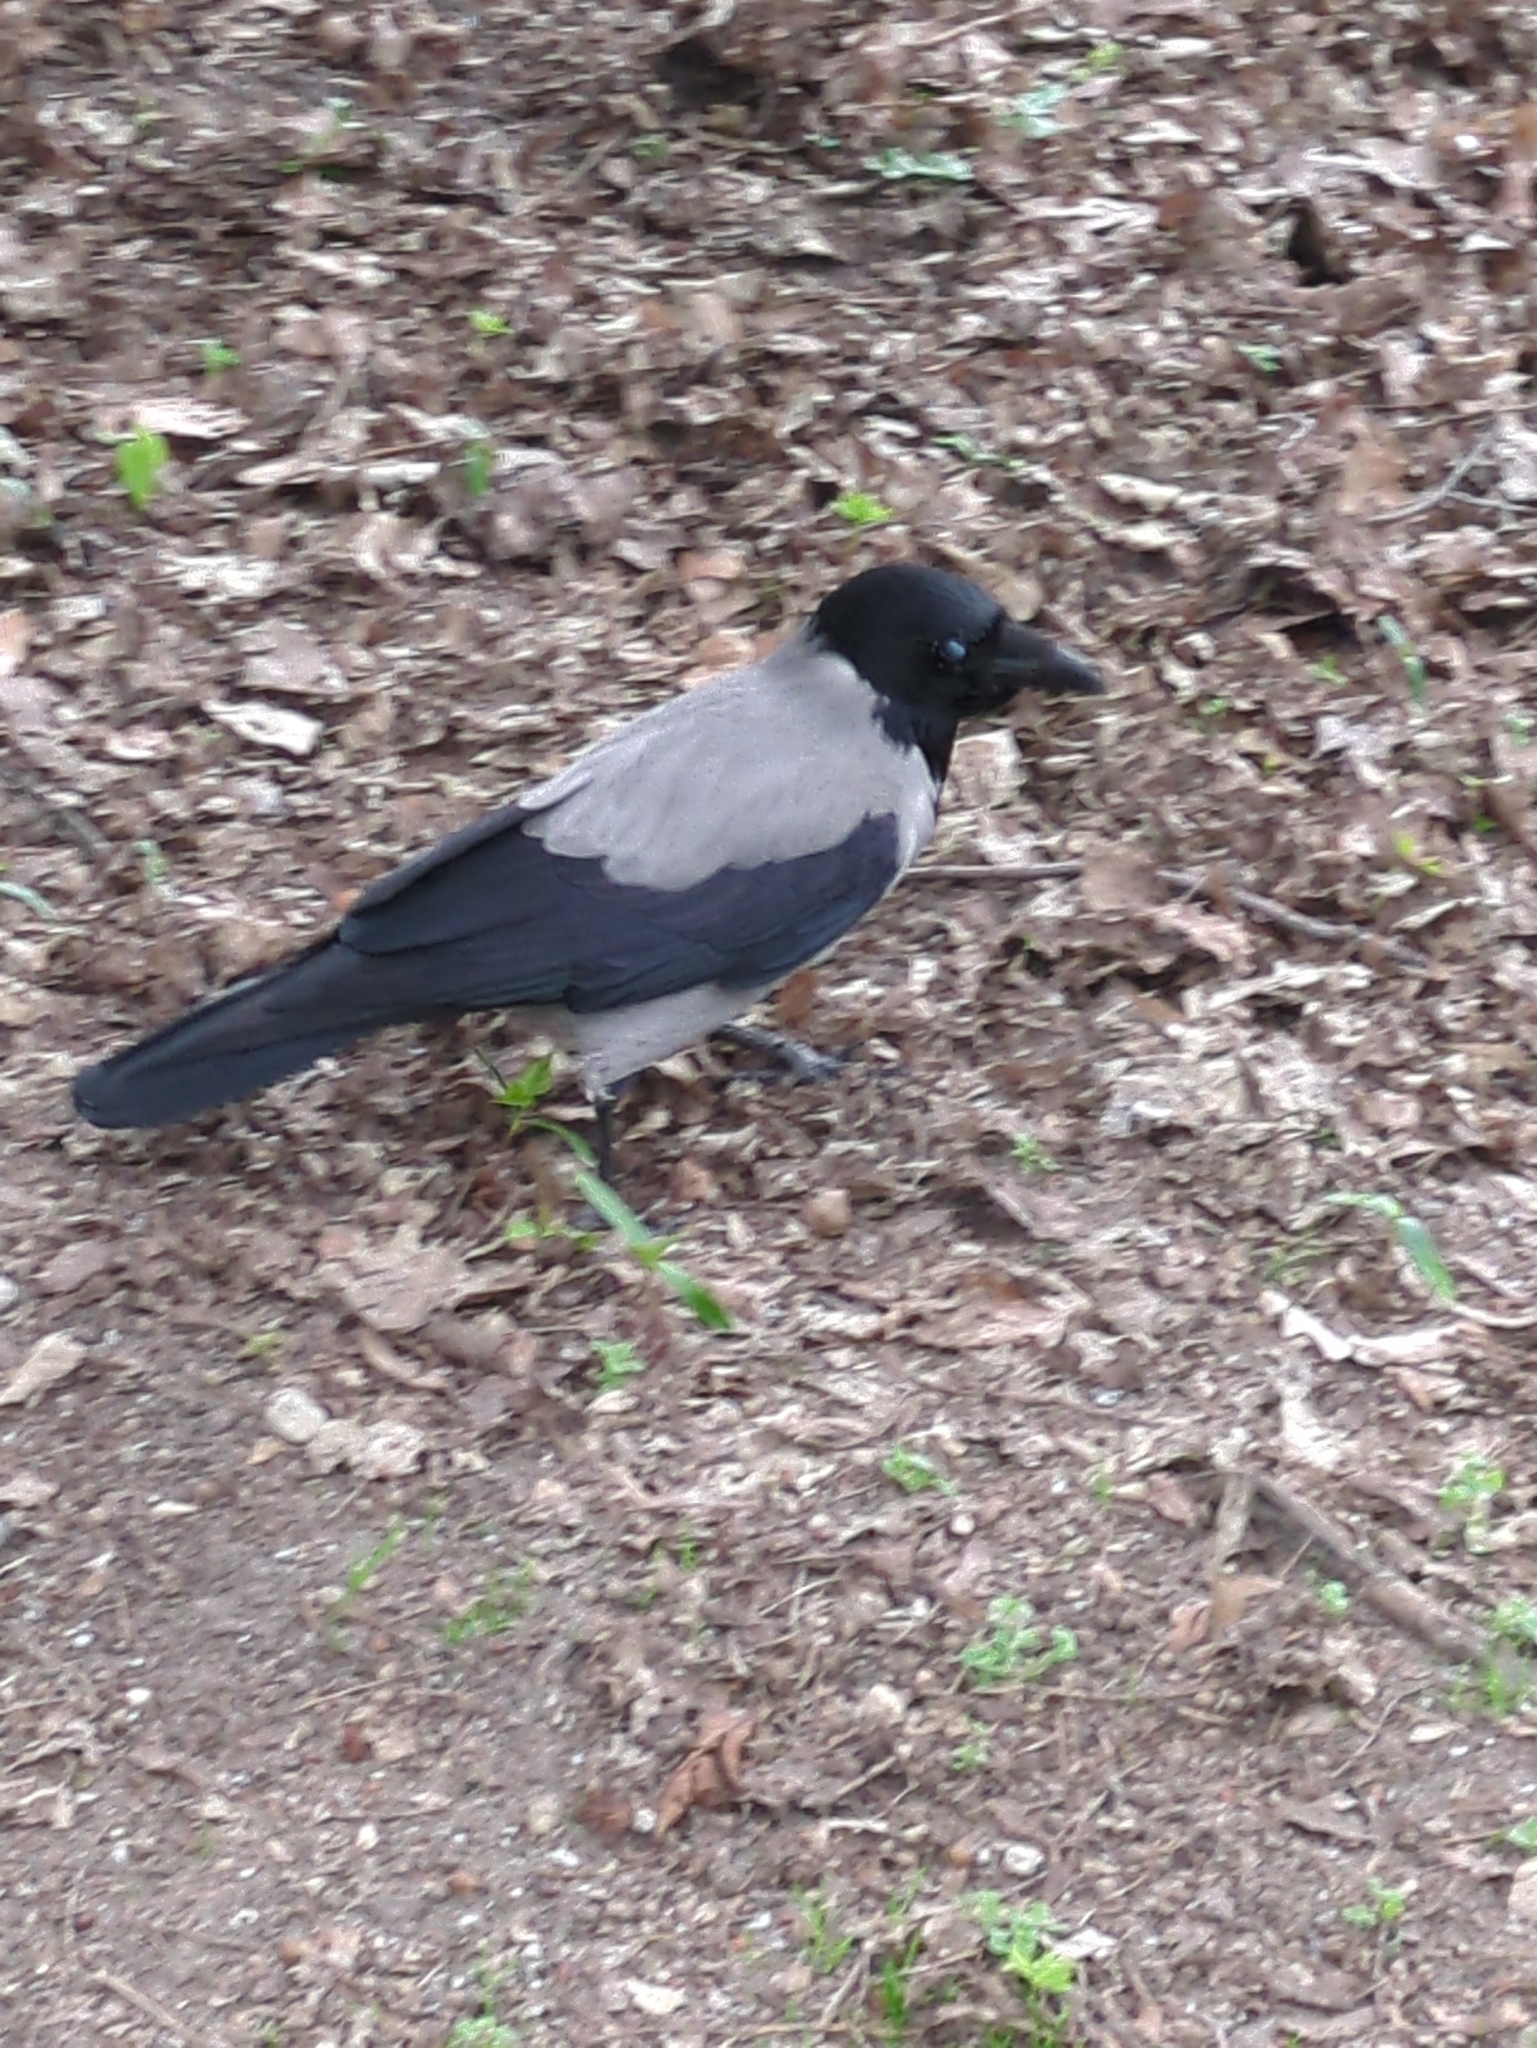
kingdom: Animalia
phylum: Chordata
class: Aves
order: Passeriformes
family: Corvidae
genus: Corvus
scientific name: Corvus cornix
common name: Hooded crow
